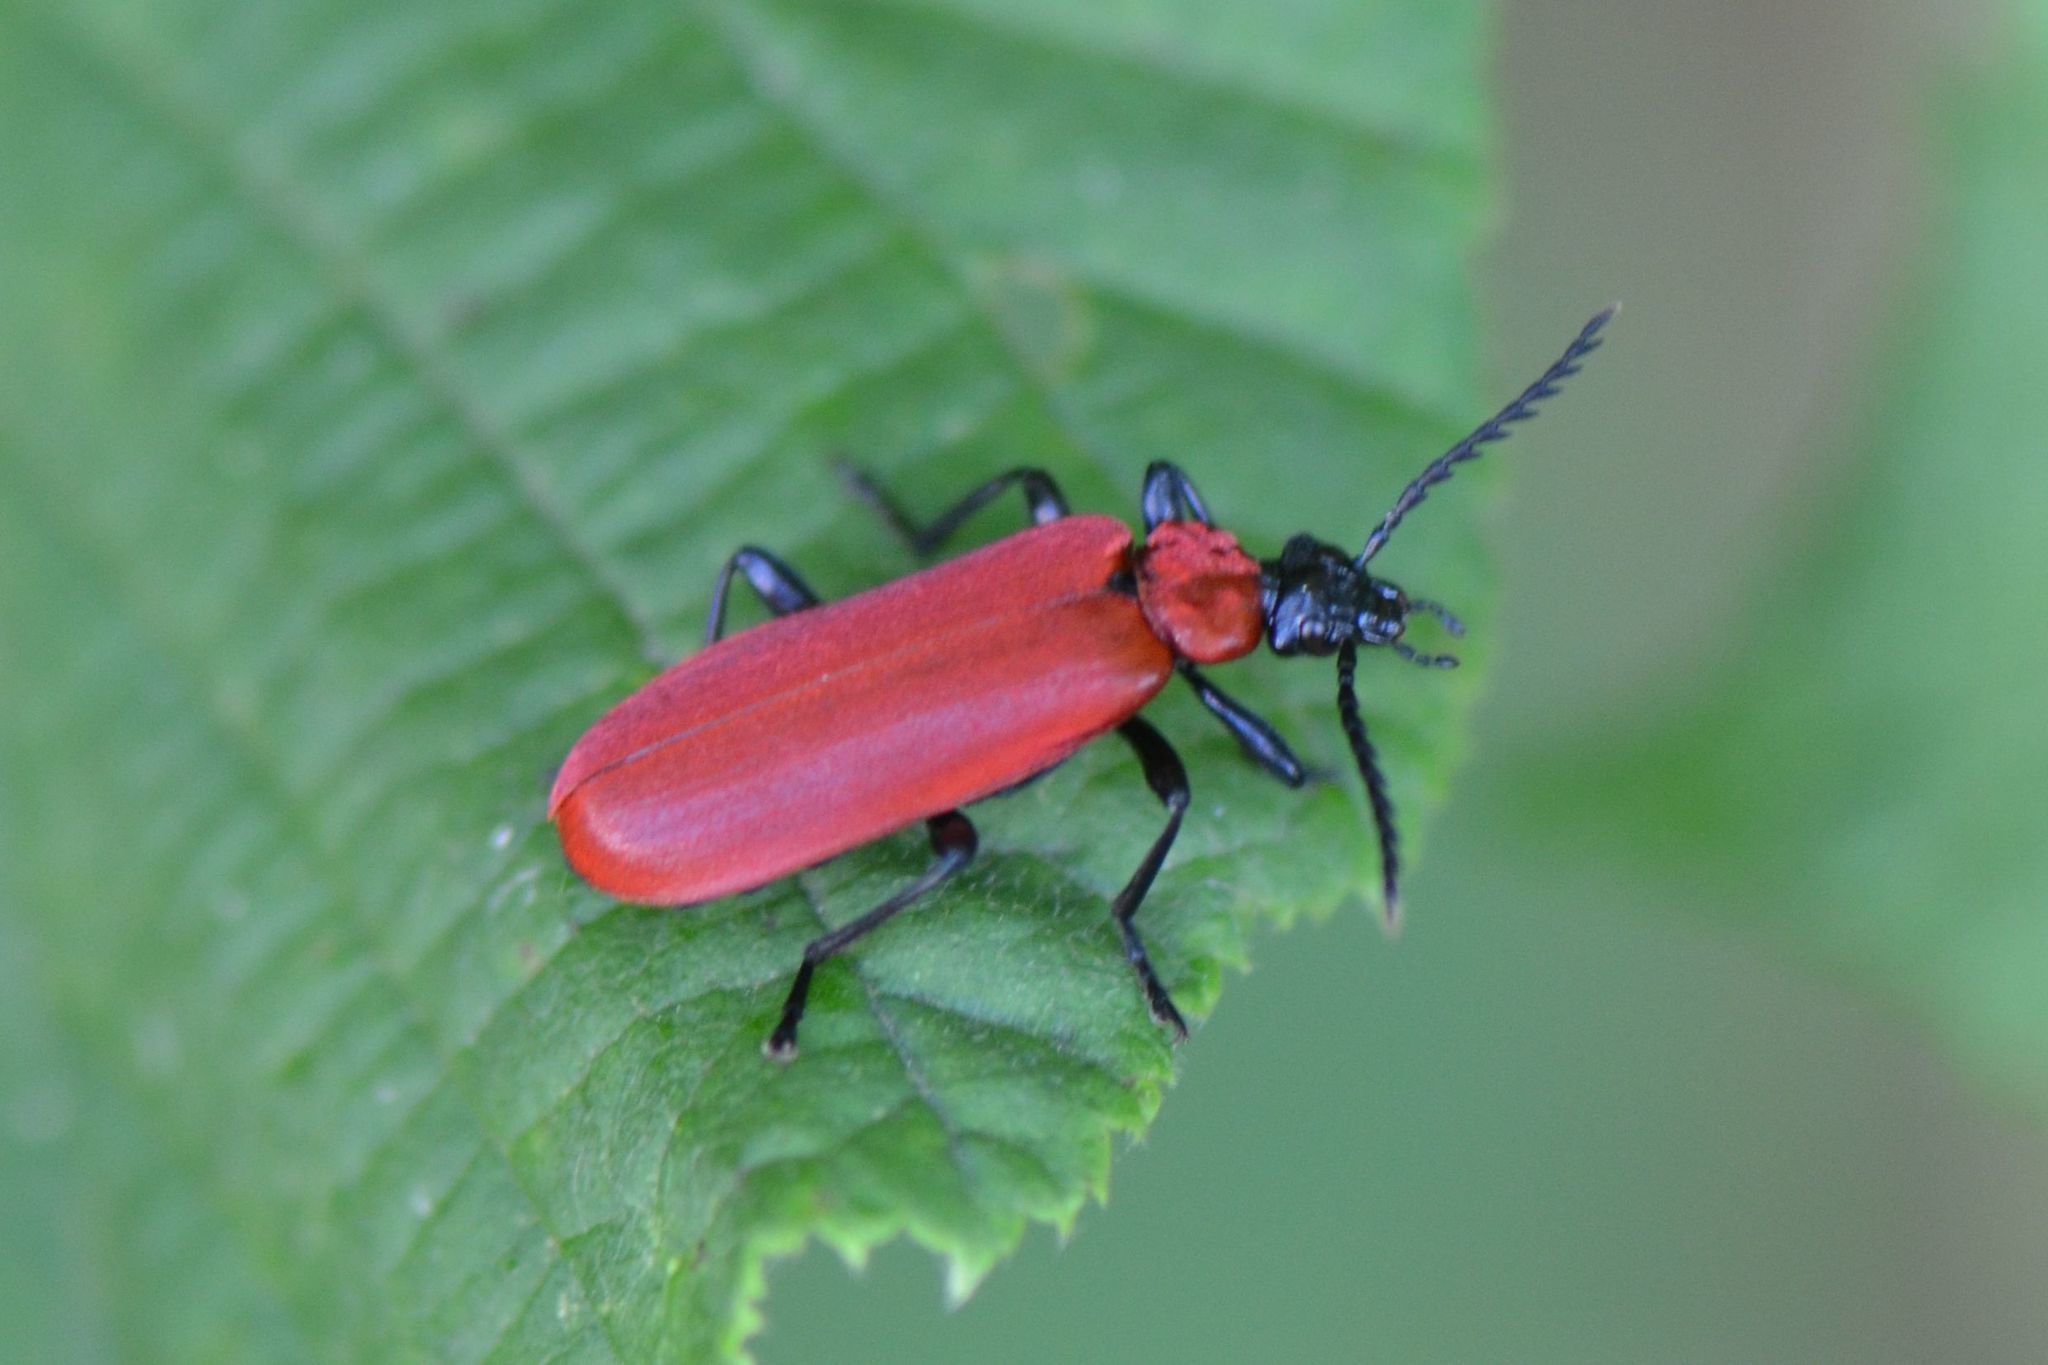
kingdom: Animalia
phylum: Arthropoda
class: Insecta
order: Coleoptera
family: Pyrochroidae
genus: Pyrochroa
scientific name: Pyrochroa coccinea
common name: Black-headed cardinal beetle
